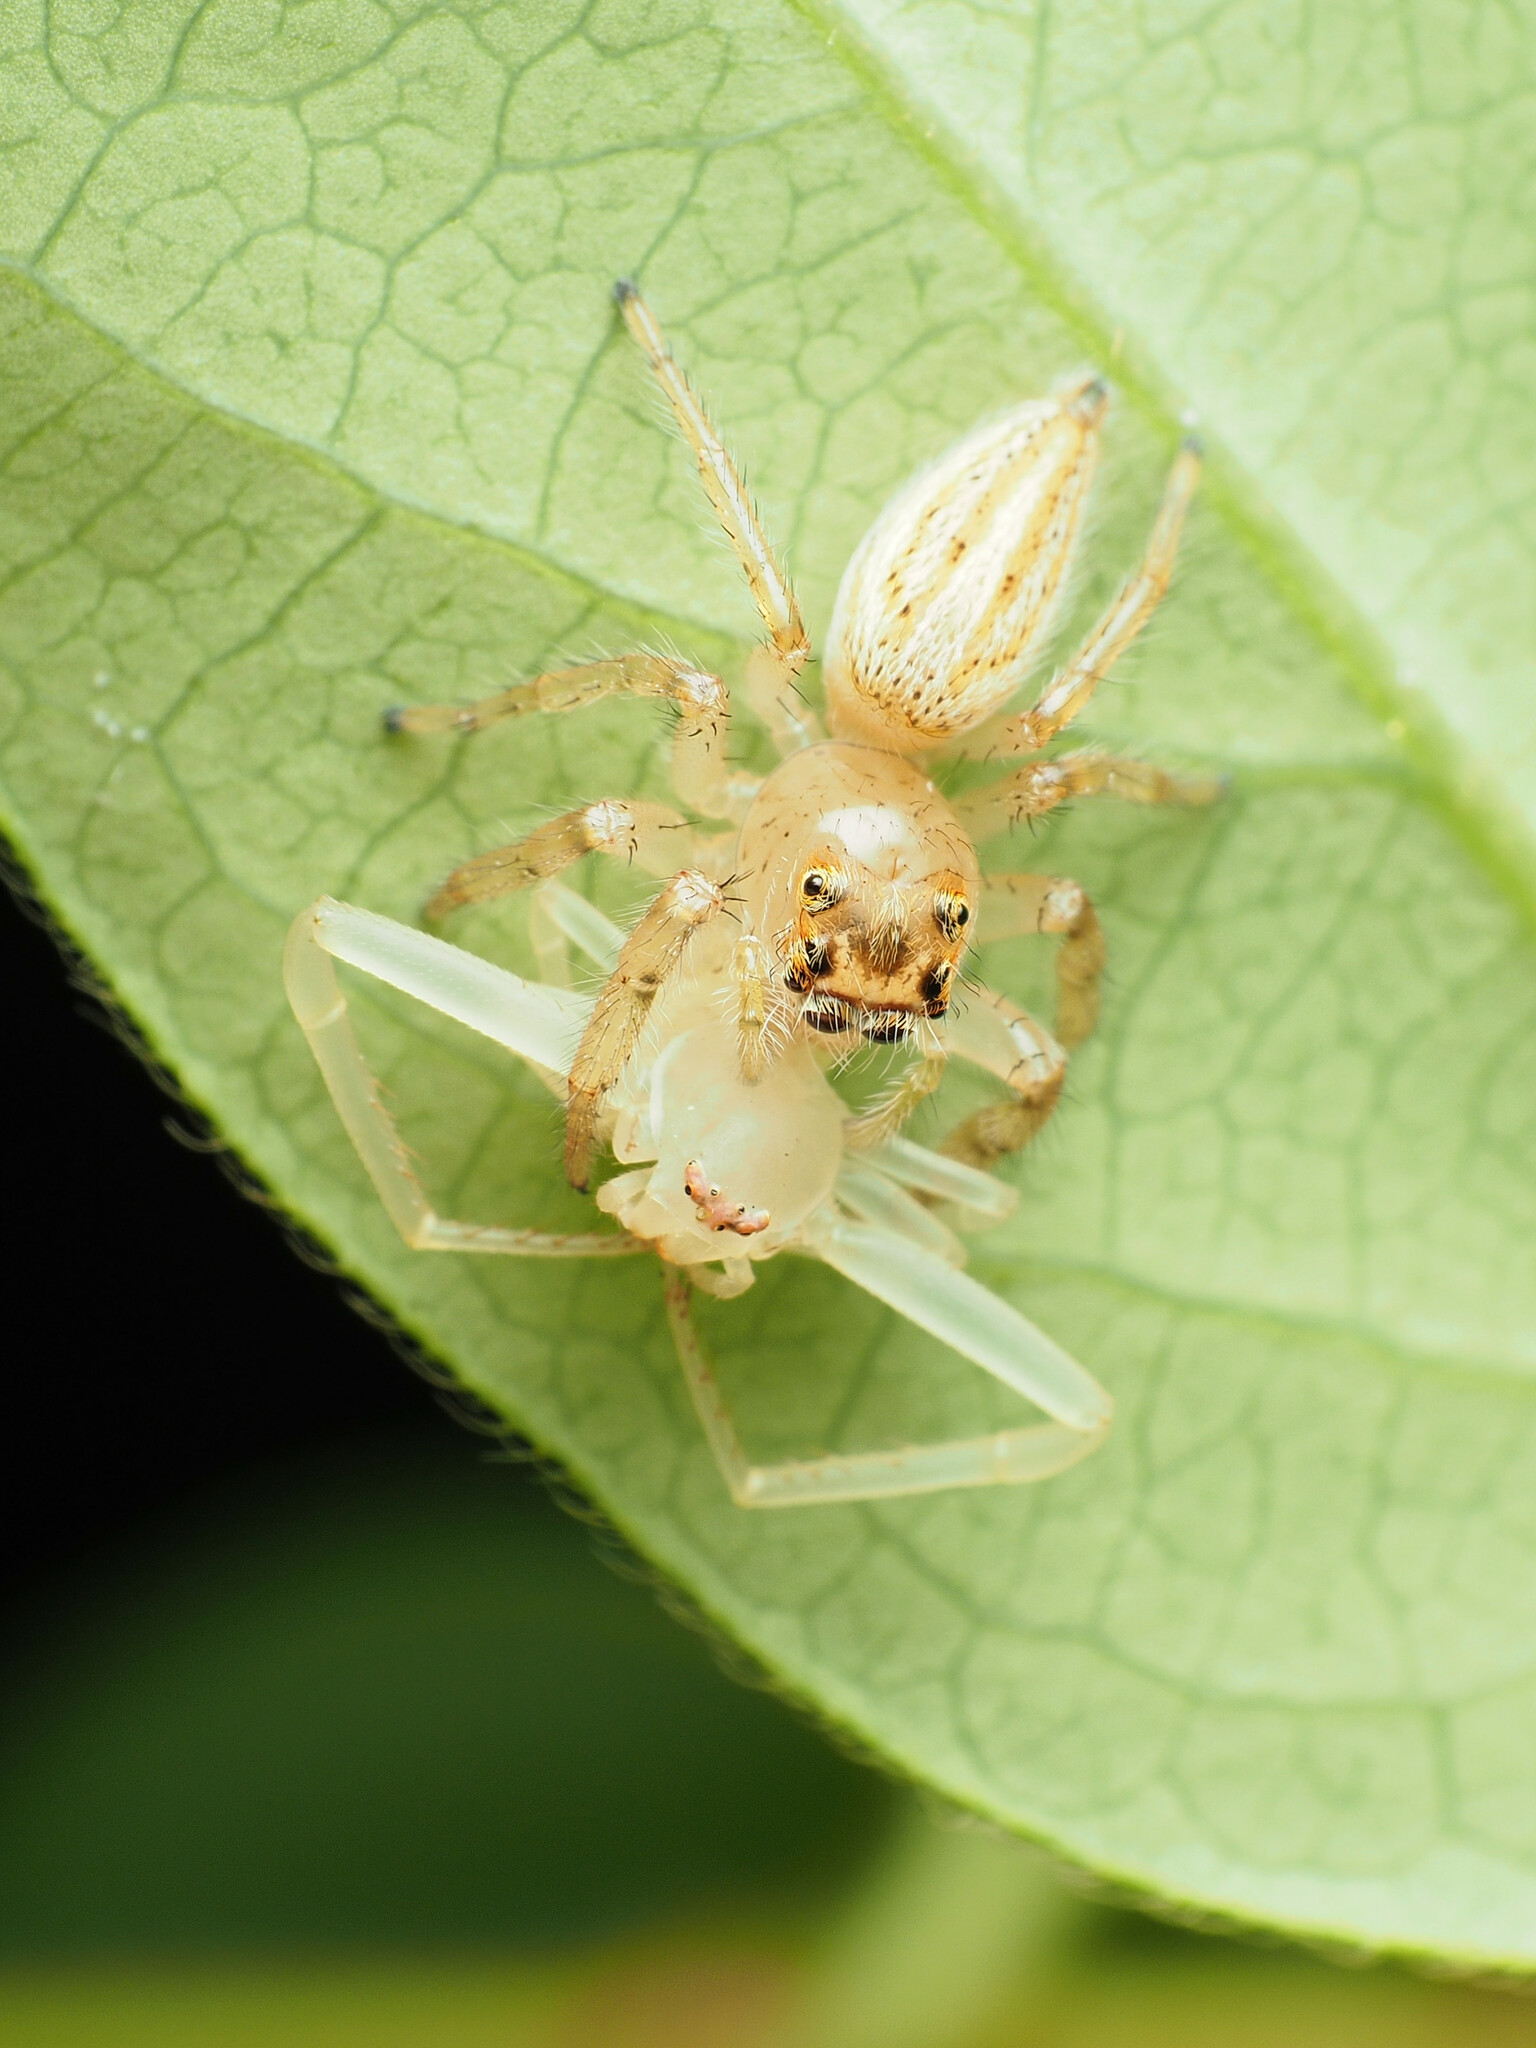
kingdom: Animalia
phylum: Arthropoda
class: Arachnida
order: Araneae
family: Salticidae
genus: Colonus
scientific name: Colonus sylvanus
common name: Jumping spiders
